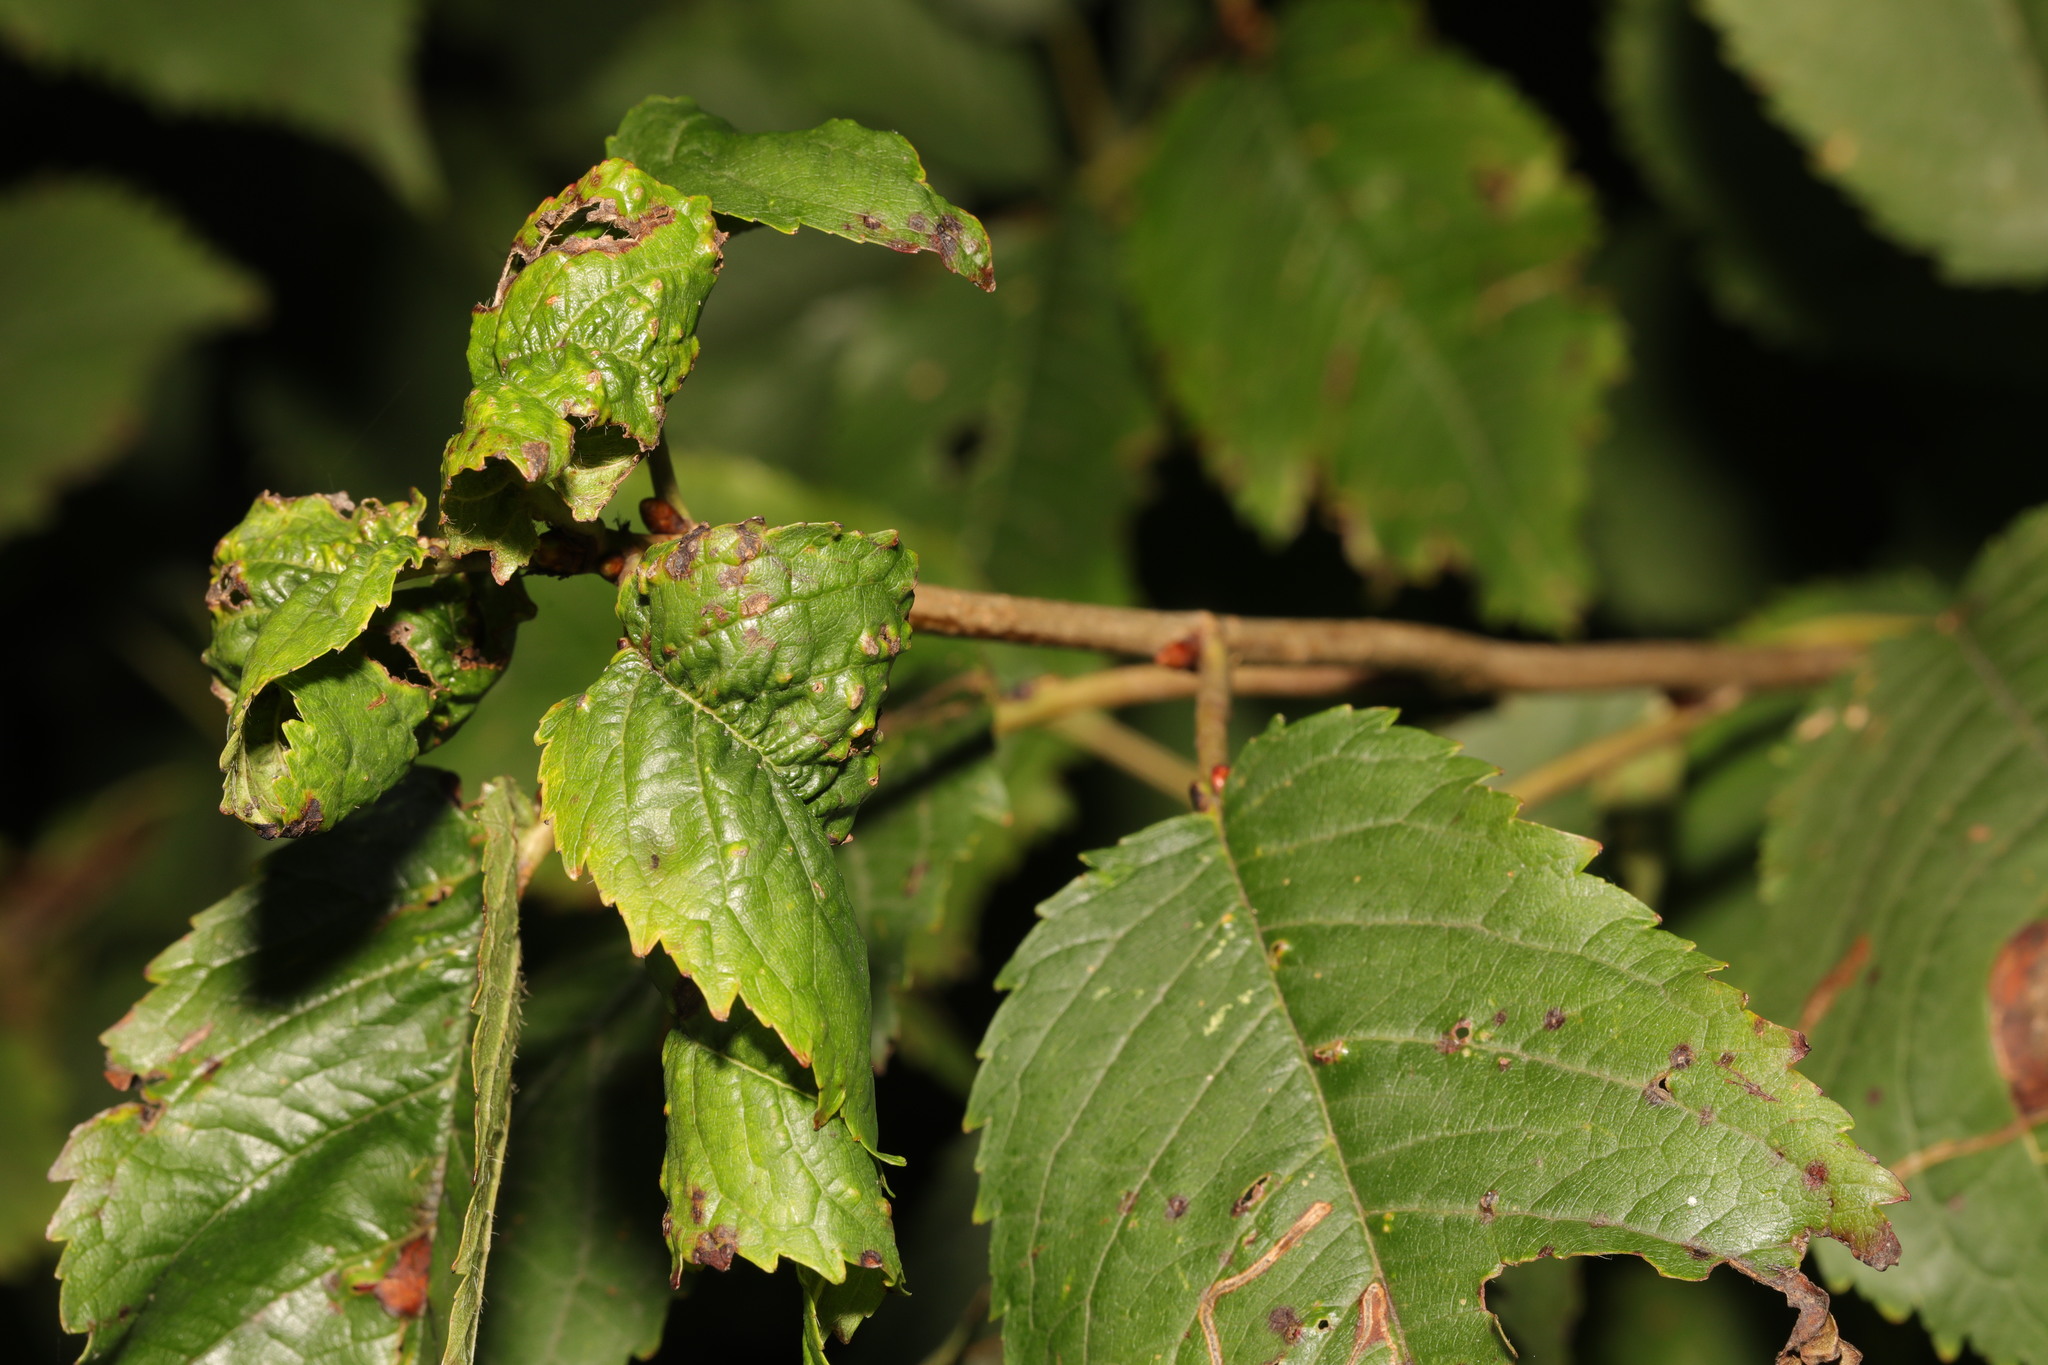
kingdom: Animalia
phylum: Arthropoda
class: Insecta
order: Hemiptera
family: Aphididae
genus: Myzus
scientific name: Myzus cerasi
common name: Black cherry aphid
